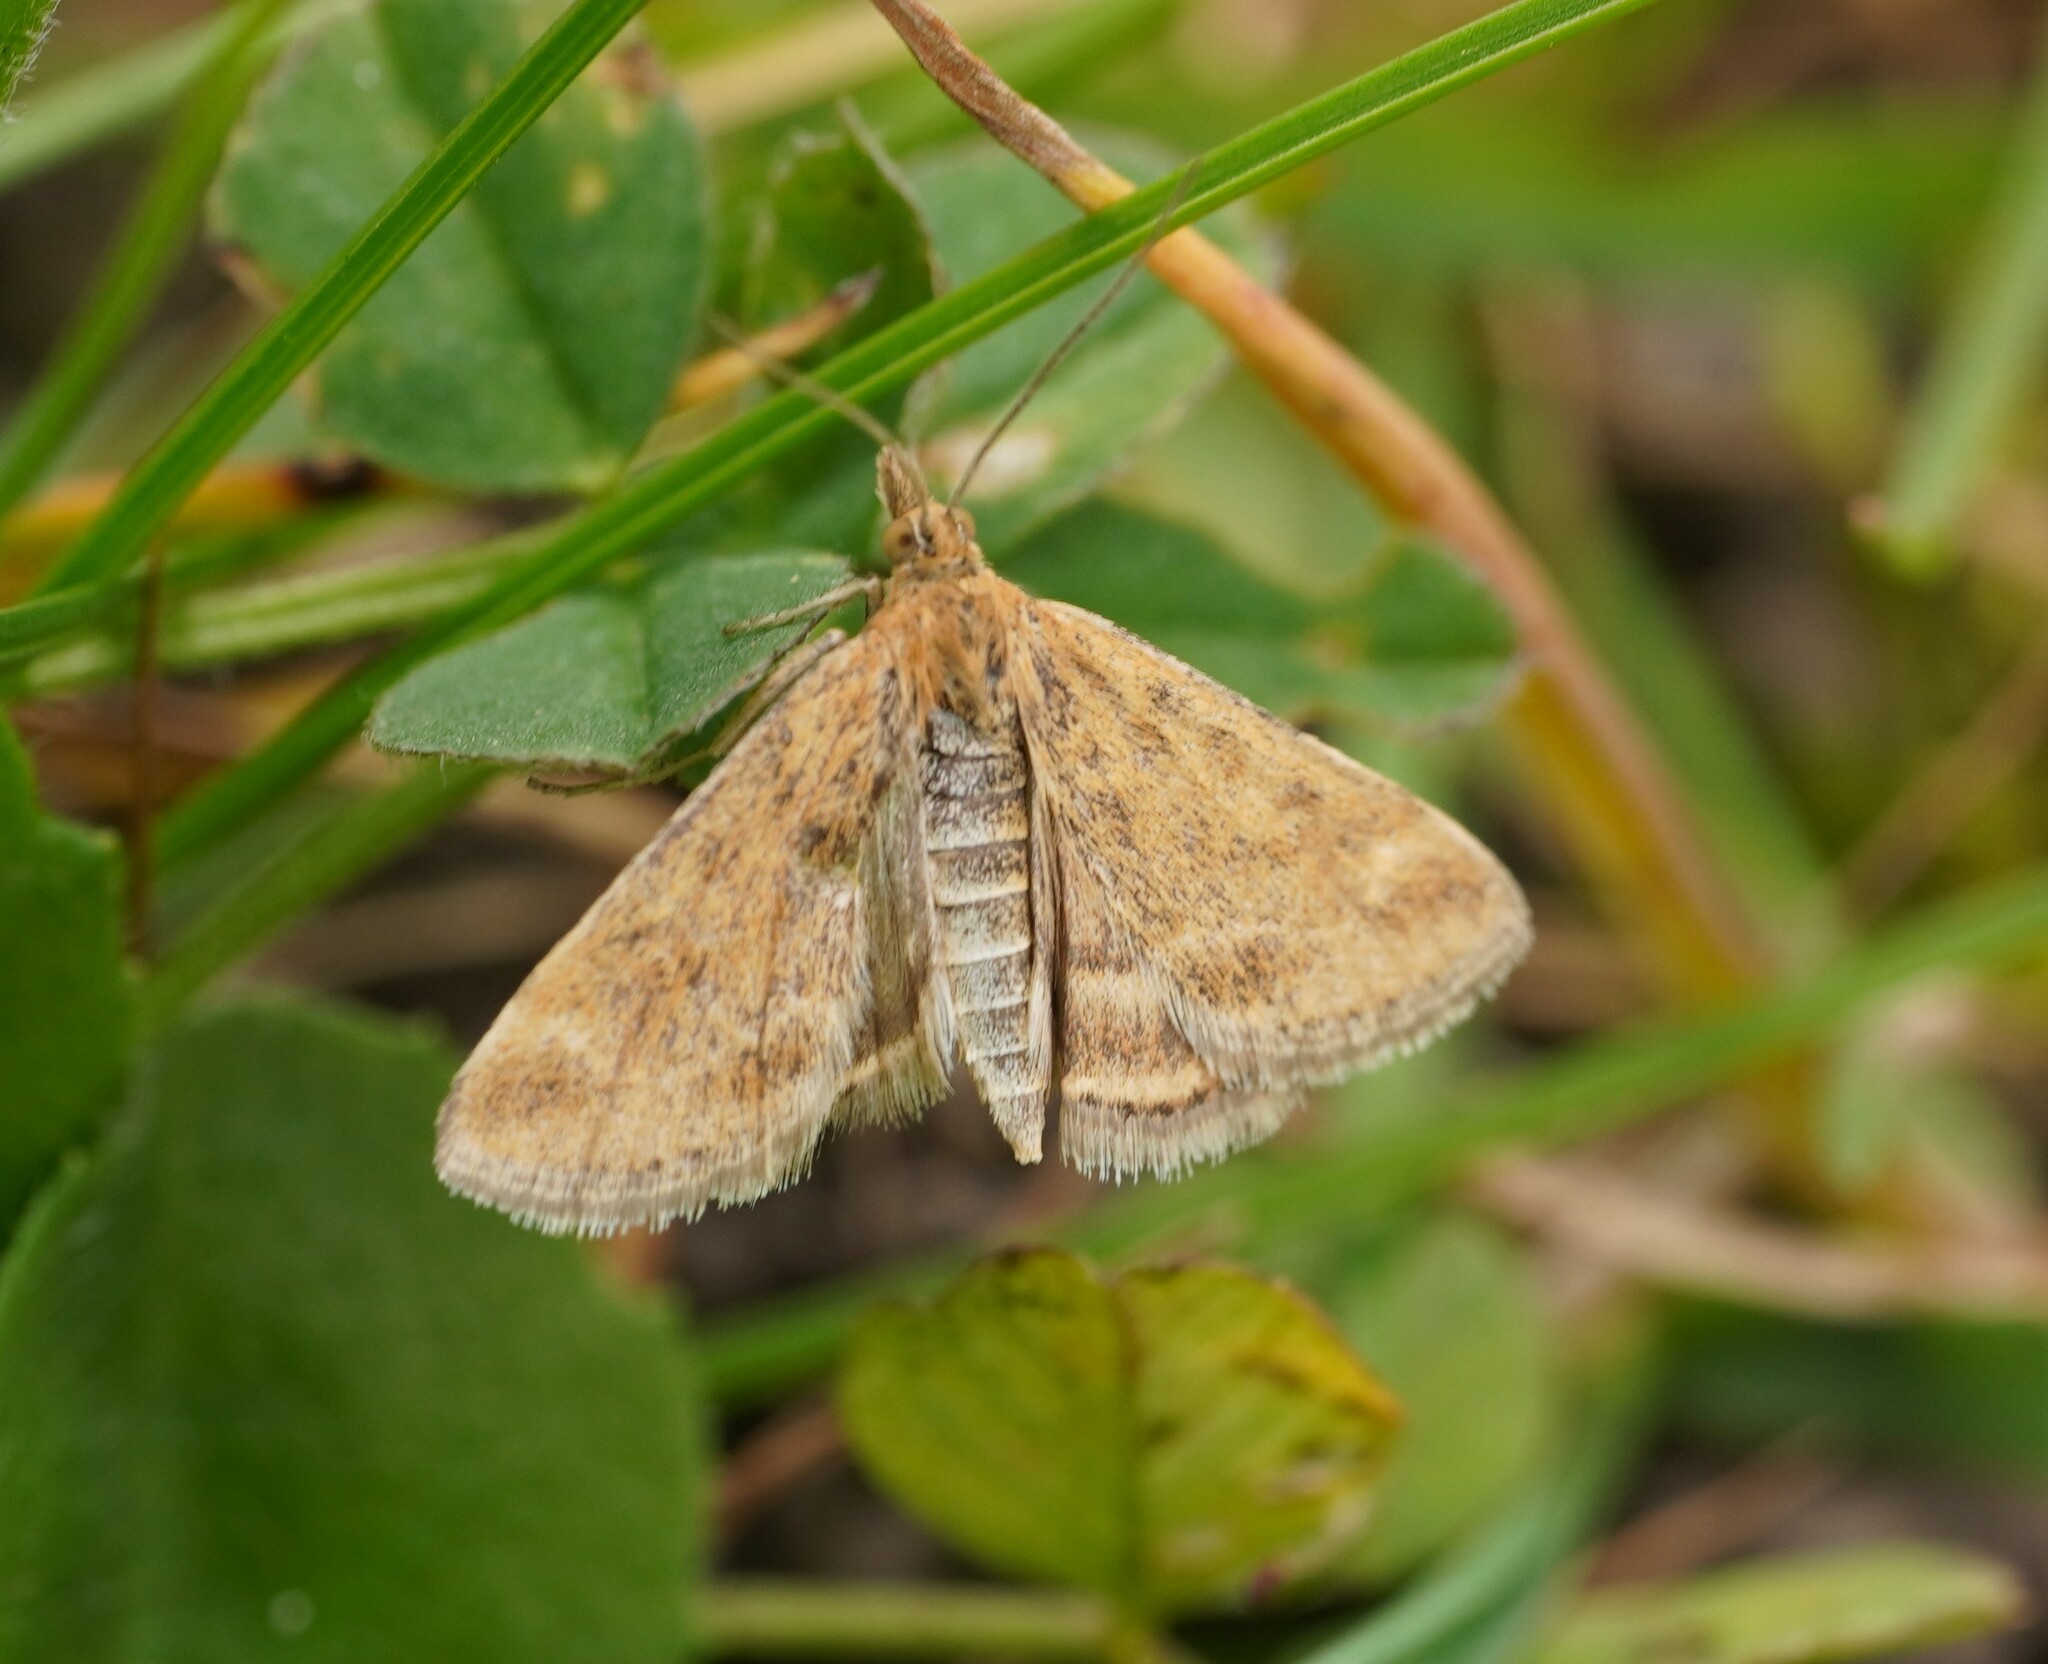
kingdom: Animalia
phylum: Arthropoda
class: Insecta
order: Lepidoptera
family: Crambidae
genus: Pyrausta
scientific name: Pyrausta despicata
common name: Straw-barred pearl
